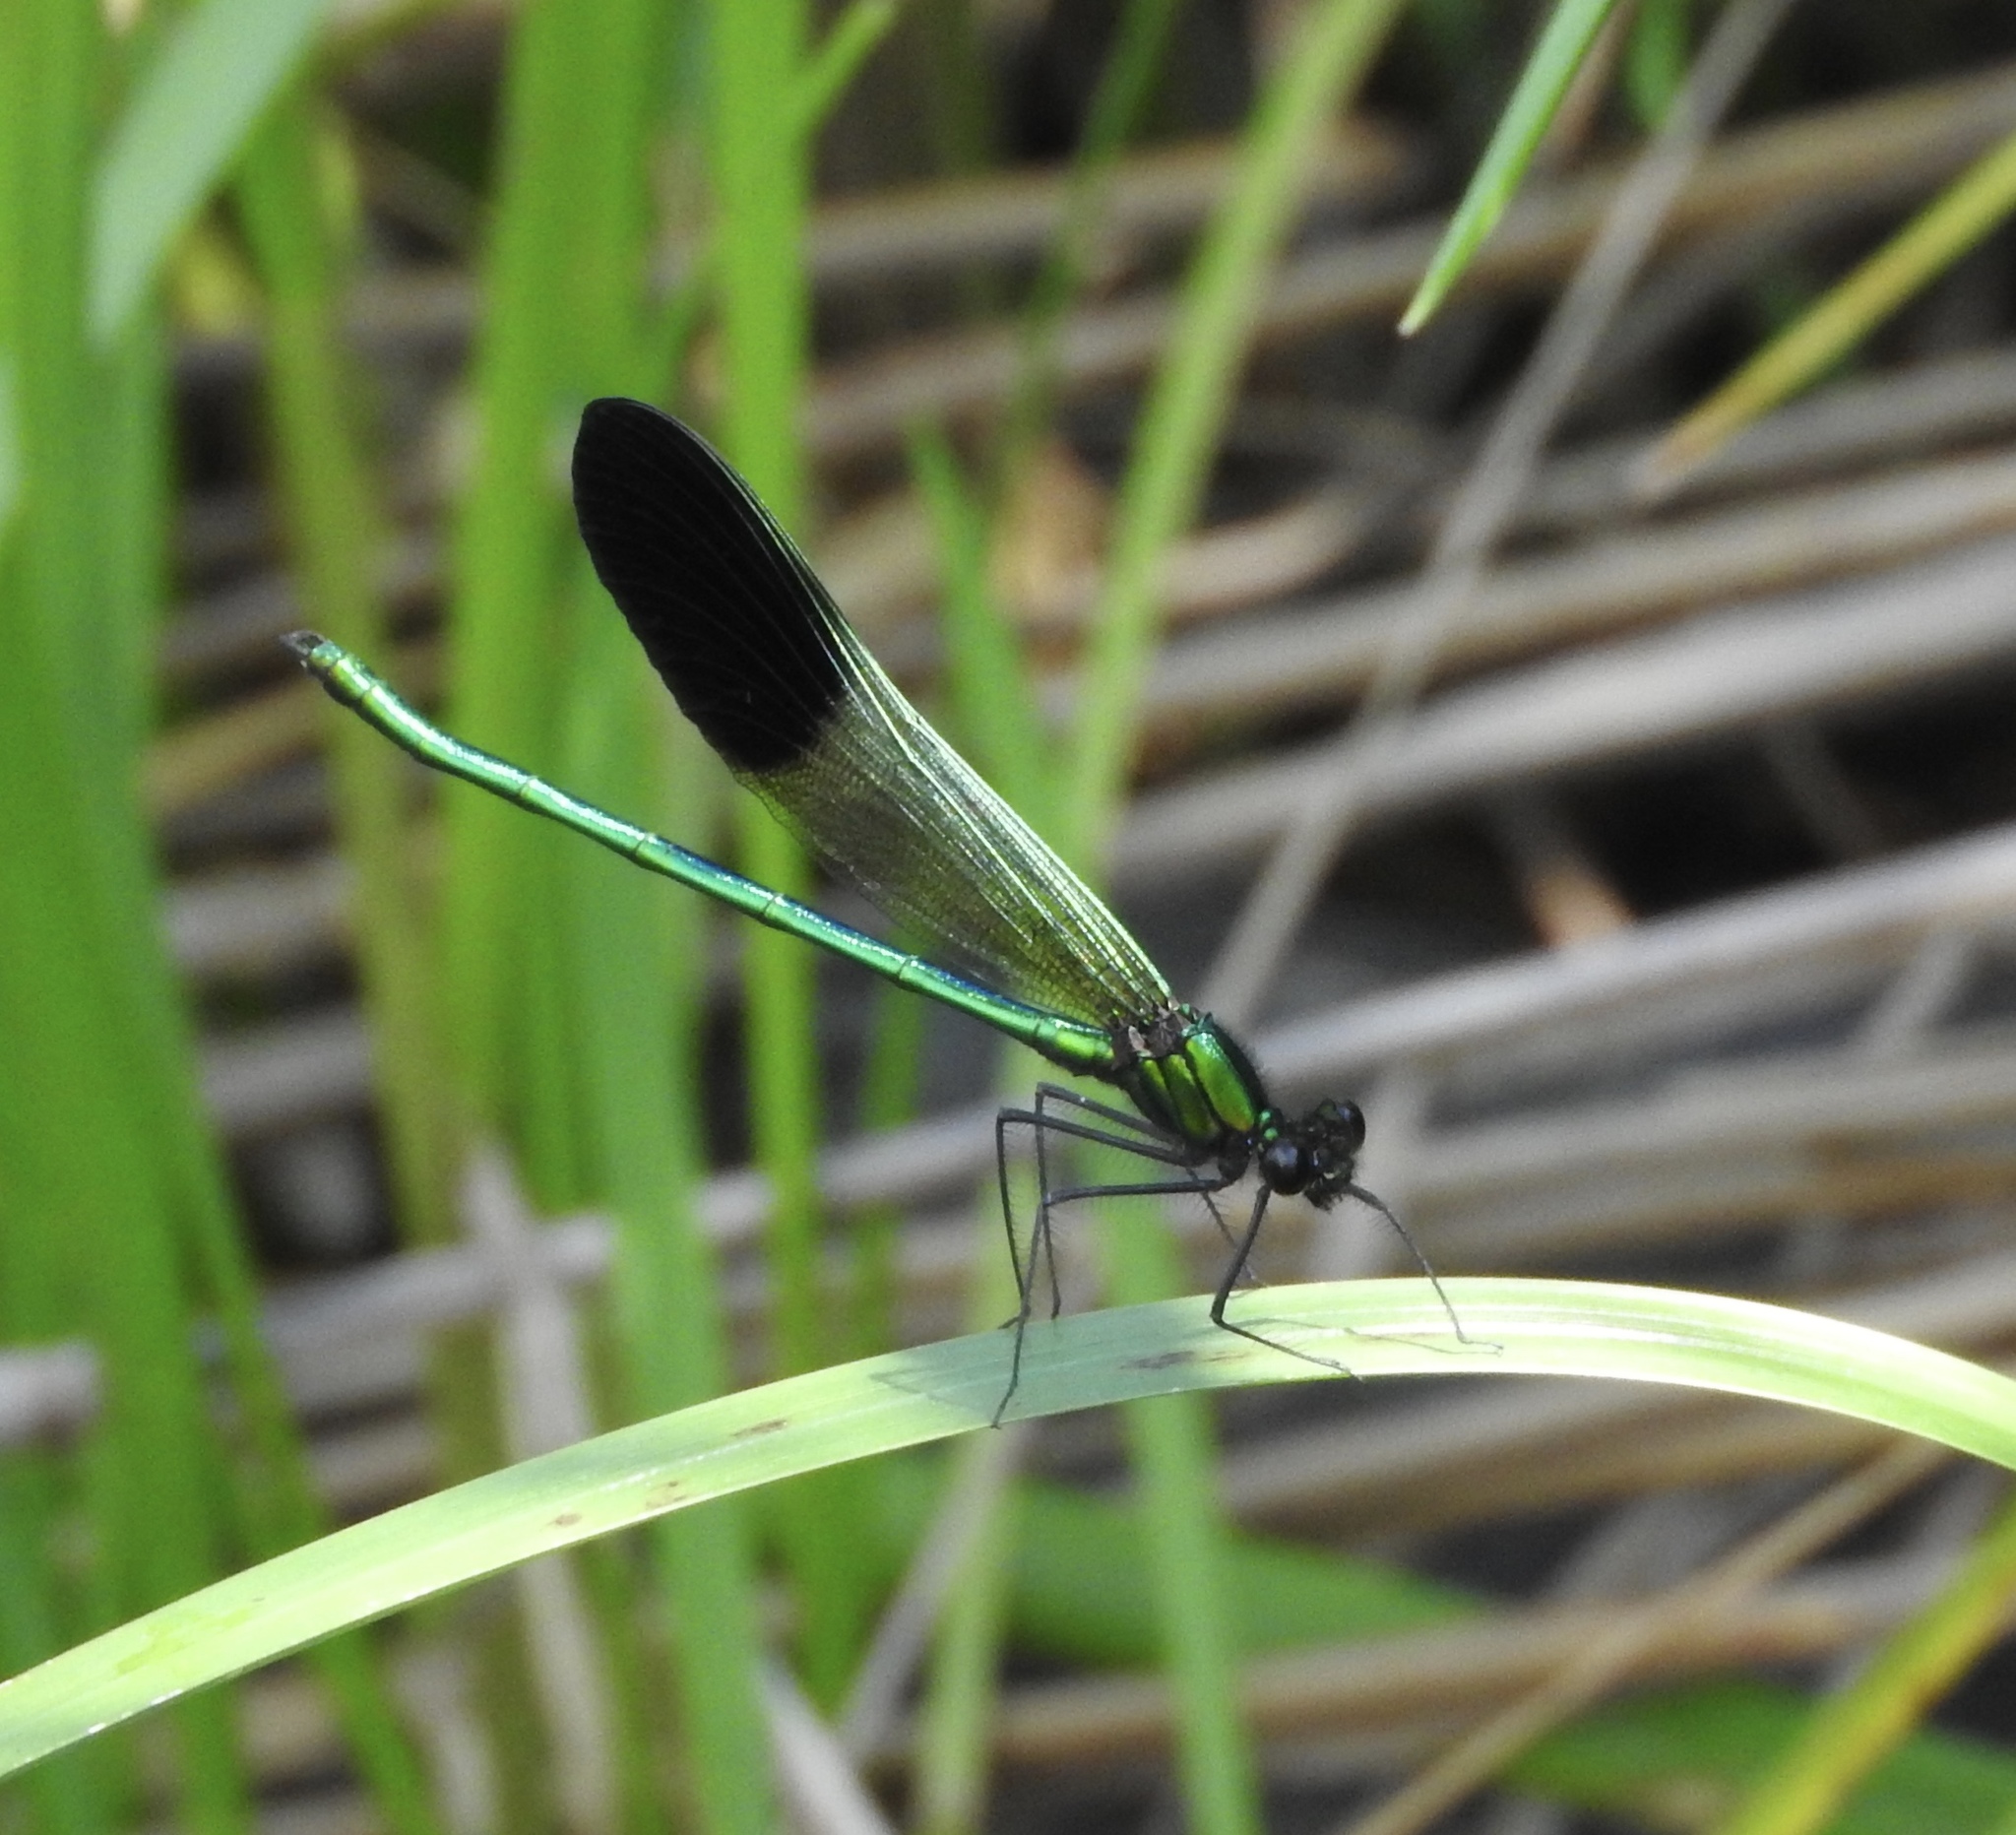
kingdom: Animalia
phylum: Arthropoda
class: Insecta
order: Odonata
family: Calopterygidae
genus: Calopteryx
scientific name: Calopteryx aequabilis
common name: River jewelwing
